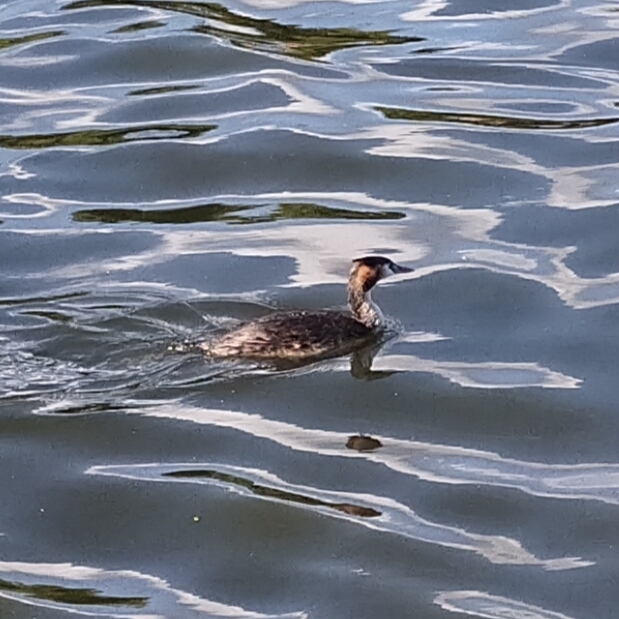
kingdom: Animalia
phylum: Chordata
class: Aves
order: Podicipediformes
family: Podicipedidae
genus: Podiceps
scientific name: Podiceps cristatus
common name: Great crested grebe
